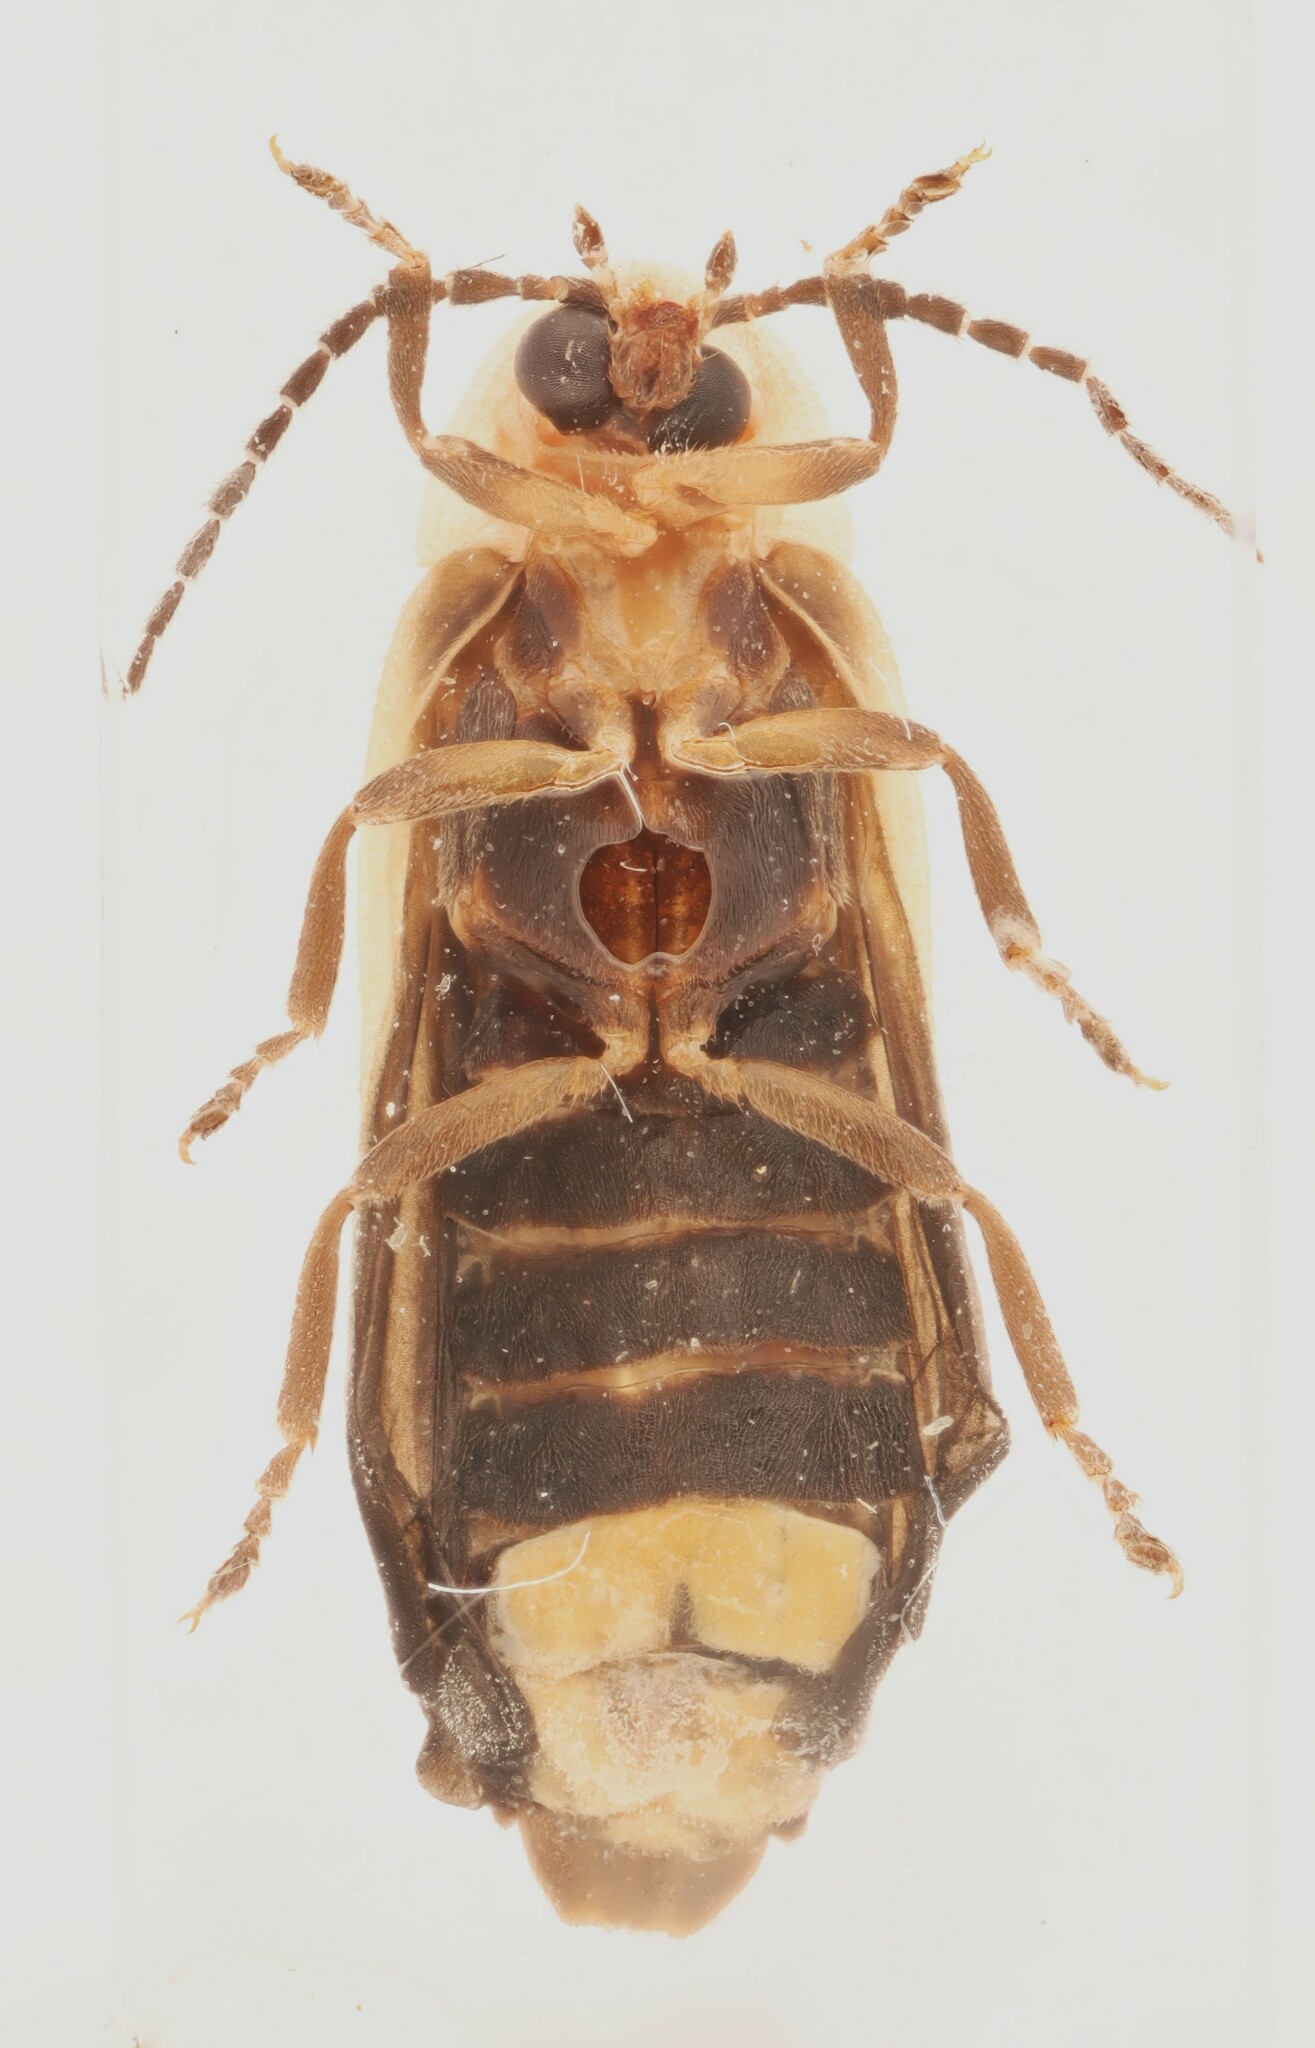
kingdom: Animalia
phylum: Arthropoda
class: Insecta
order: Coleoptera
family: Lampyridae
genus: Photinus
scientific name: Photinus consanguineus
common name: Consanguineous firefly
